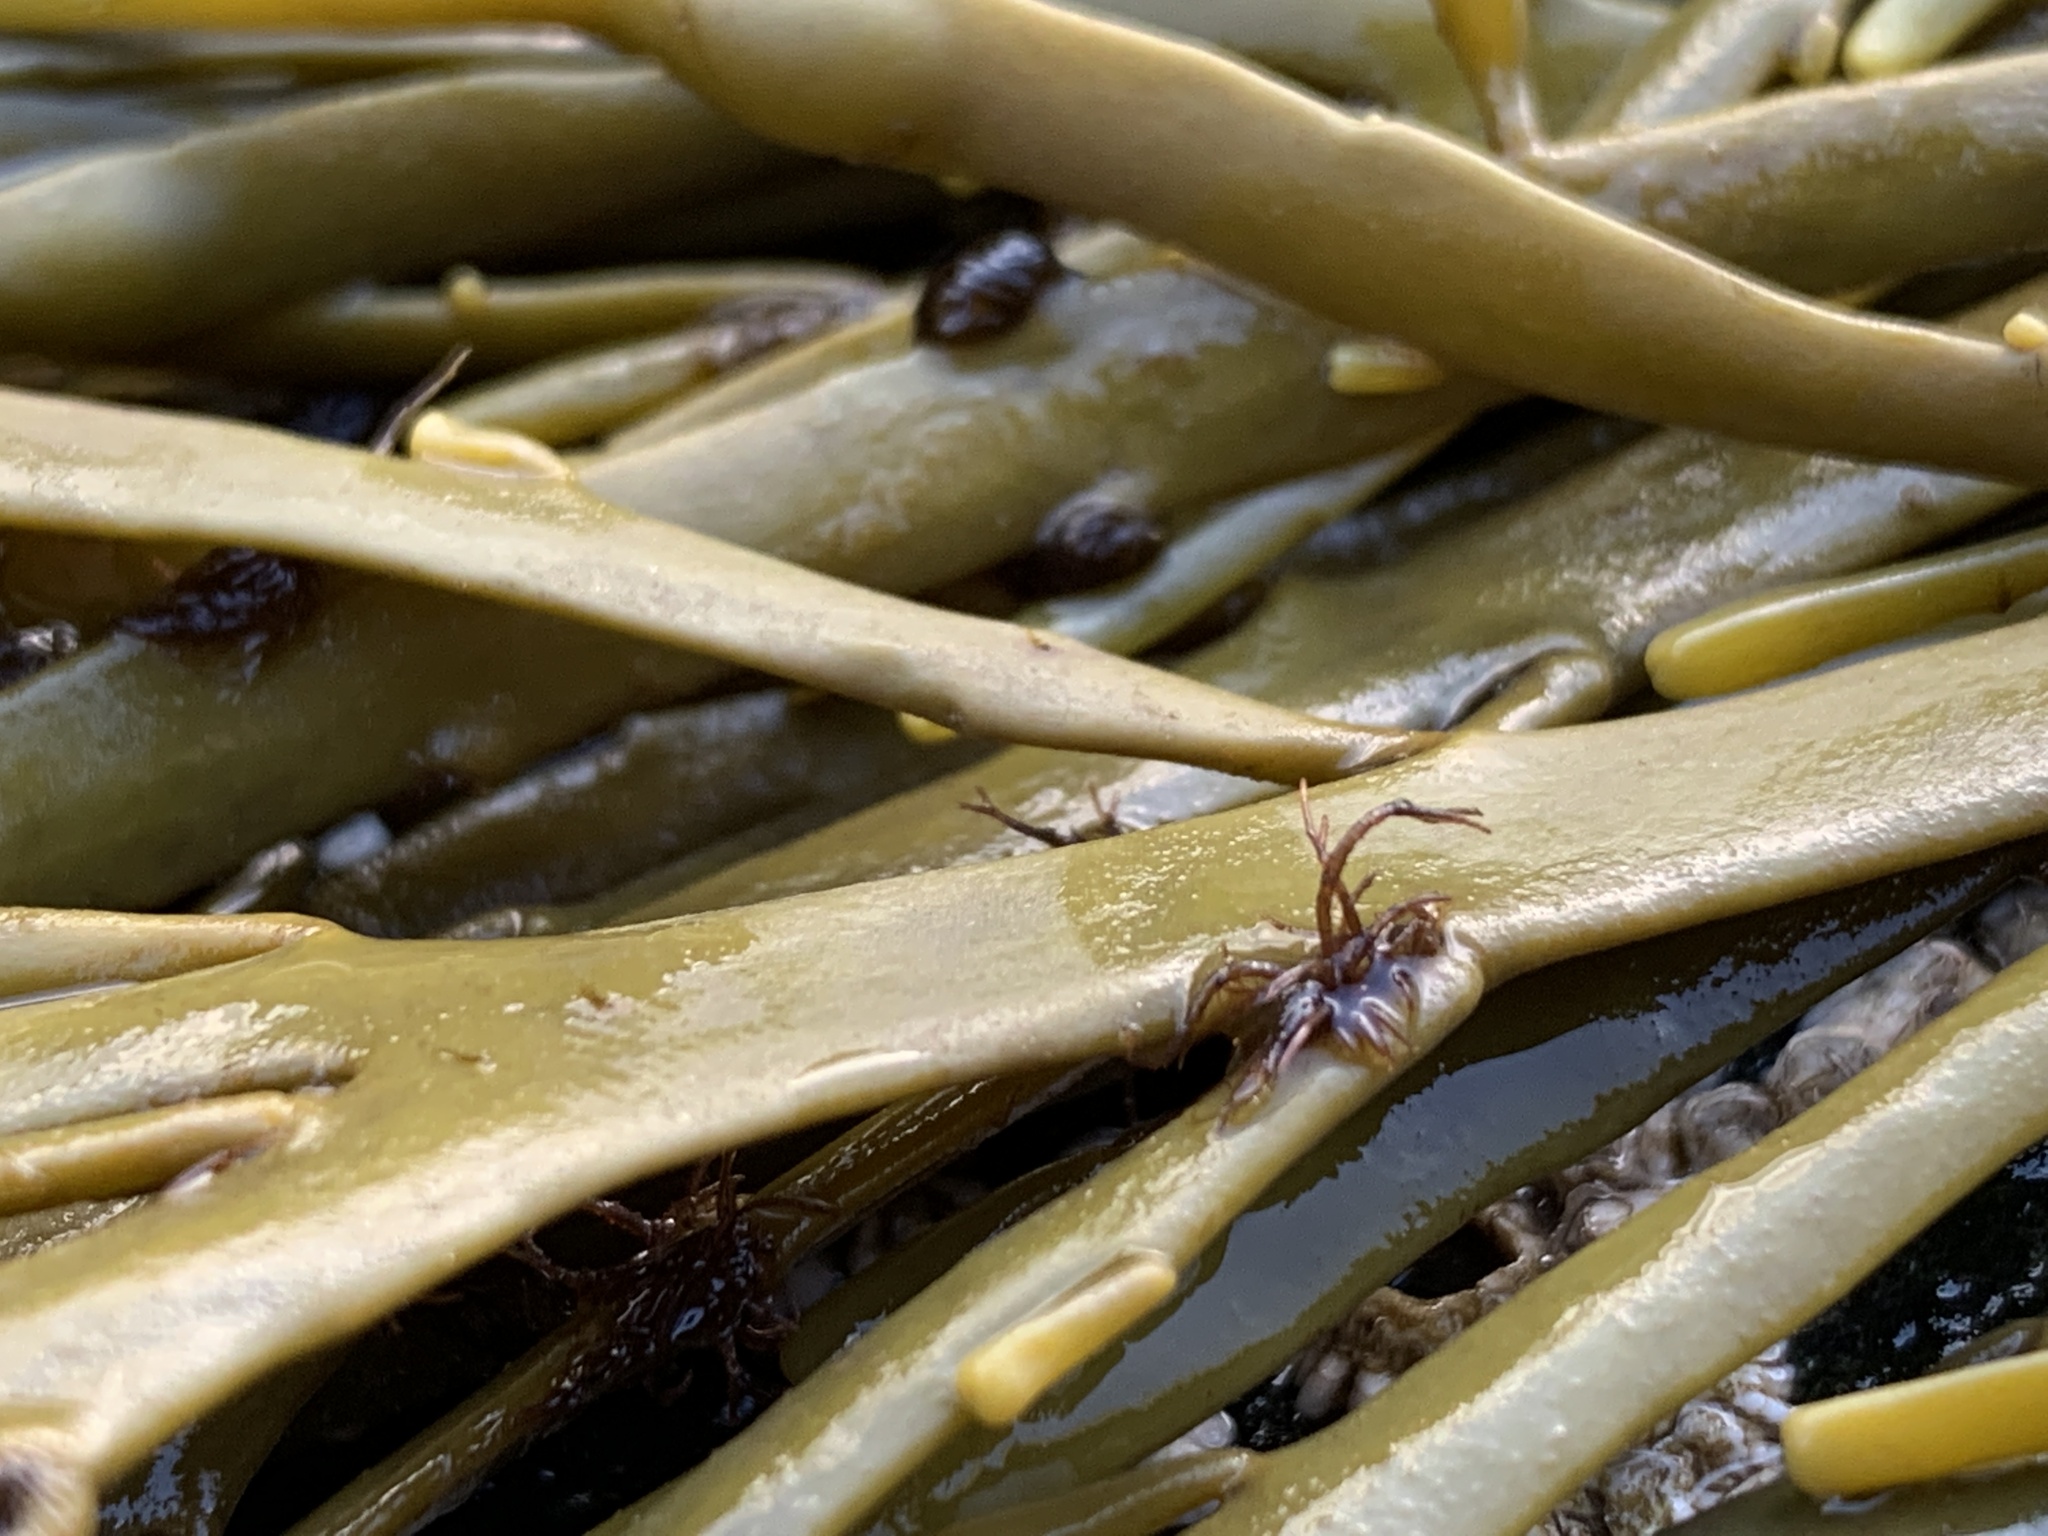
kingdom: Plantae
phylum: Rhodophyta
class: Florideophyceae
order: Ceramiales
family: Rhodomelaceae
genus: Vertebrata
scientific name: Vertebrata lanosa
